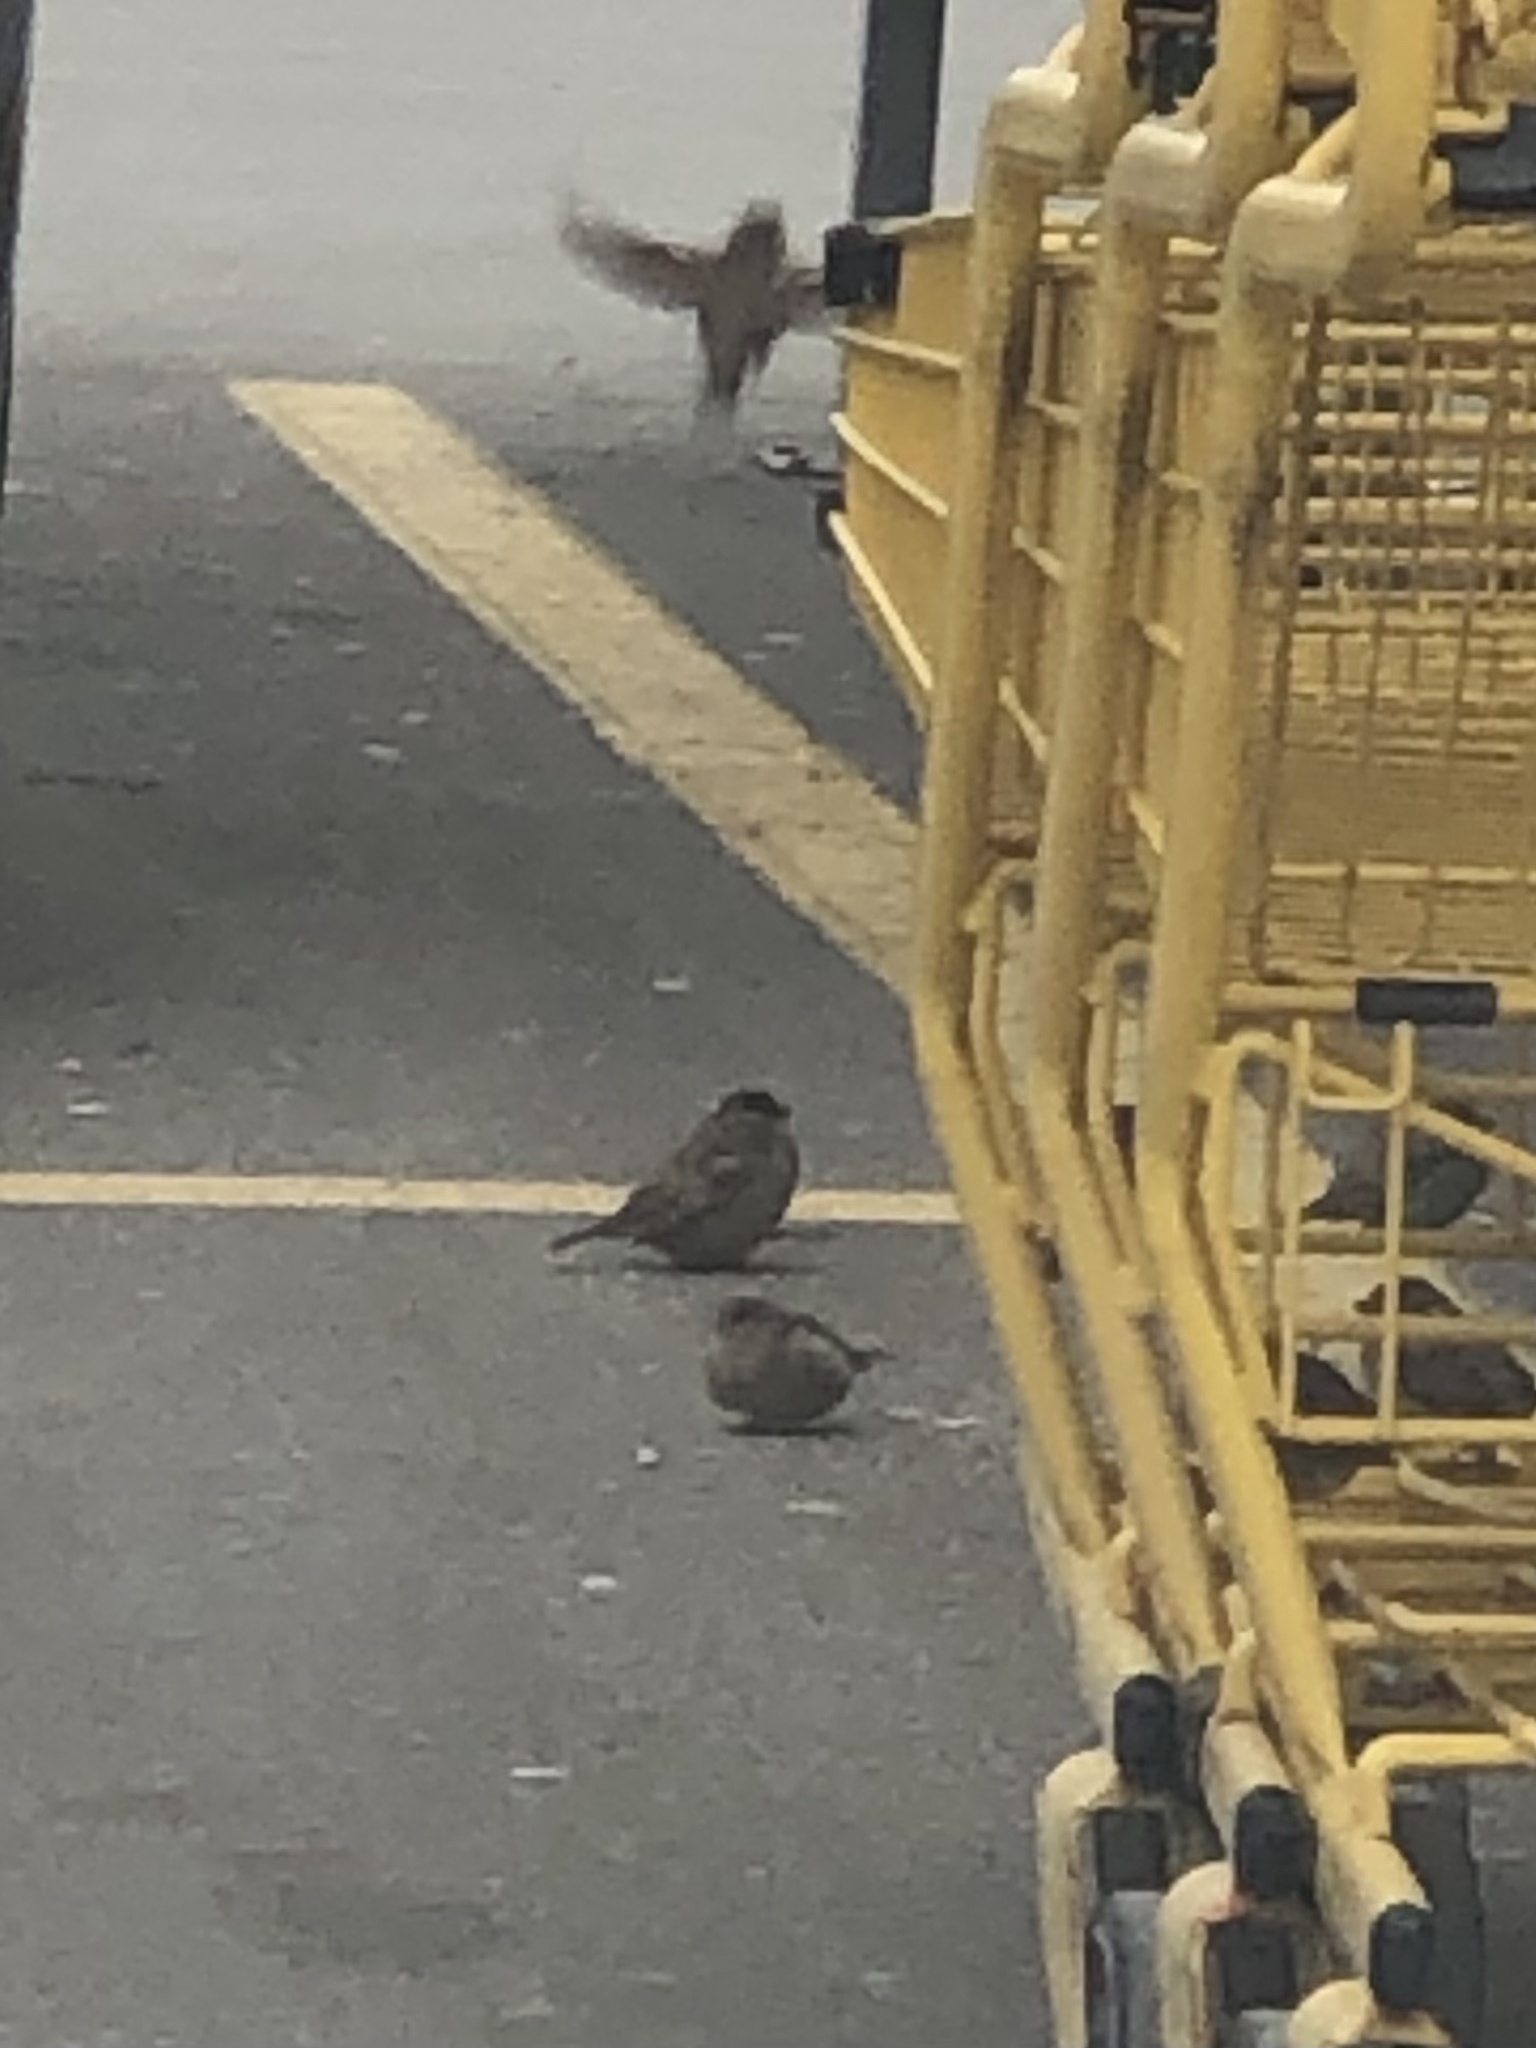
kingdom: Animalia
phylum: Chordata
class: Aves
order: Passeriformes
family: Passeridae
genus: Passer
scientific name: Passer domesticus
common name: House sparrow
